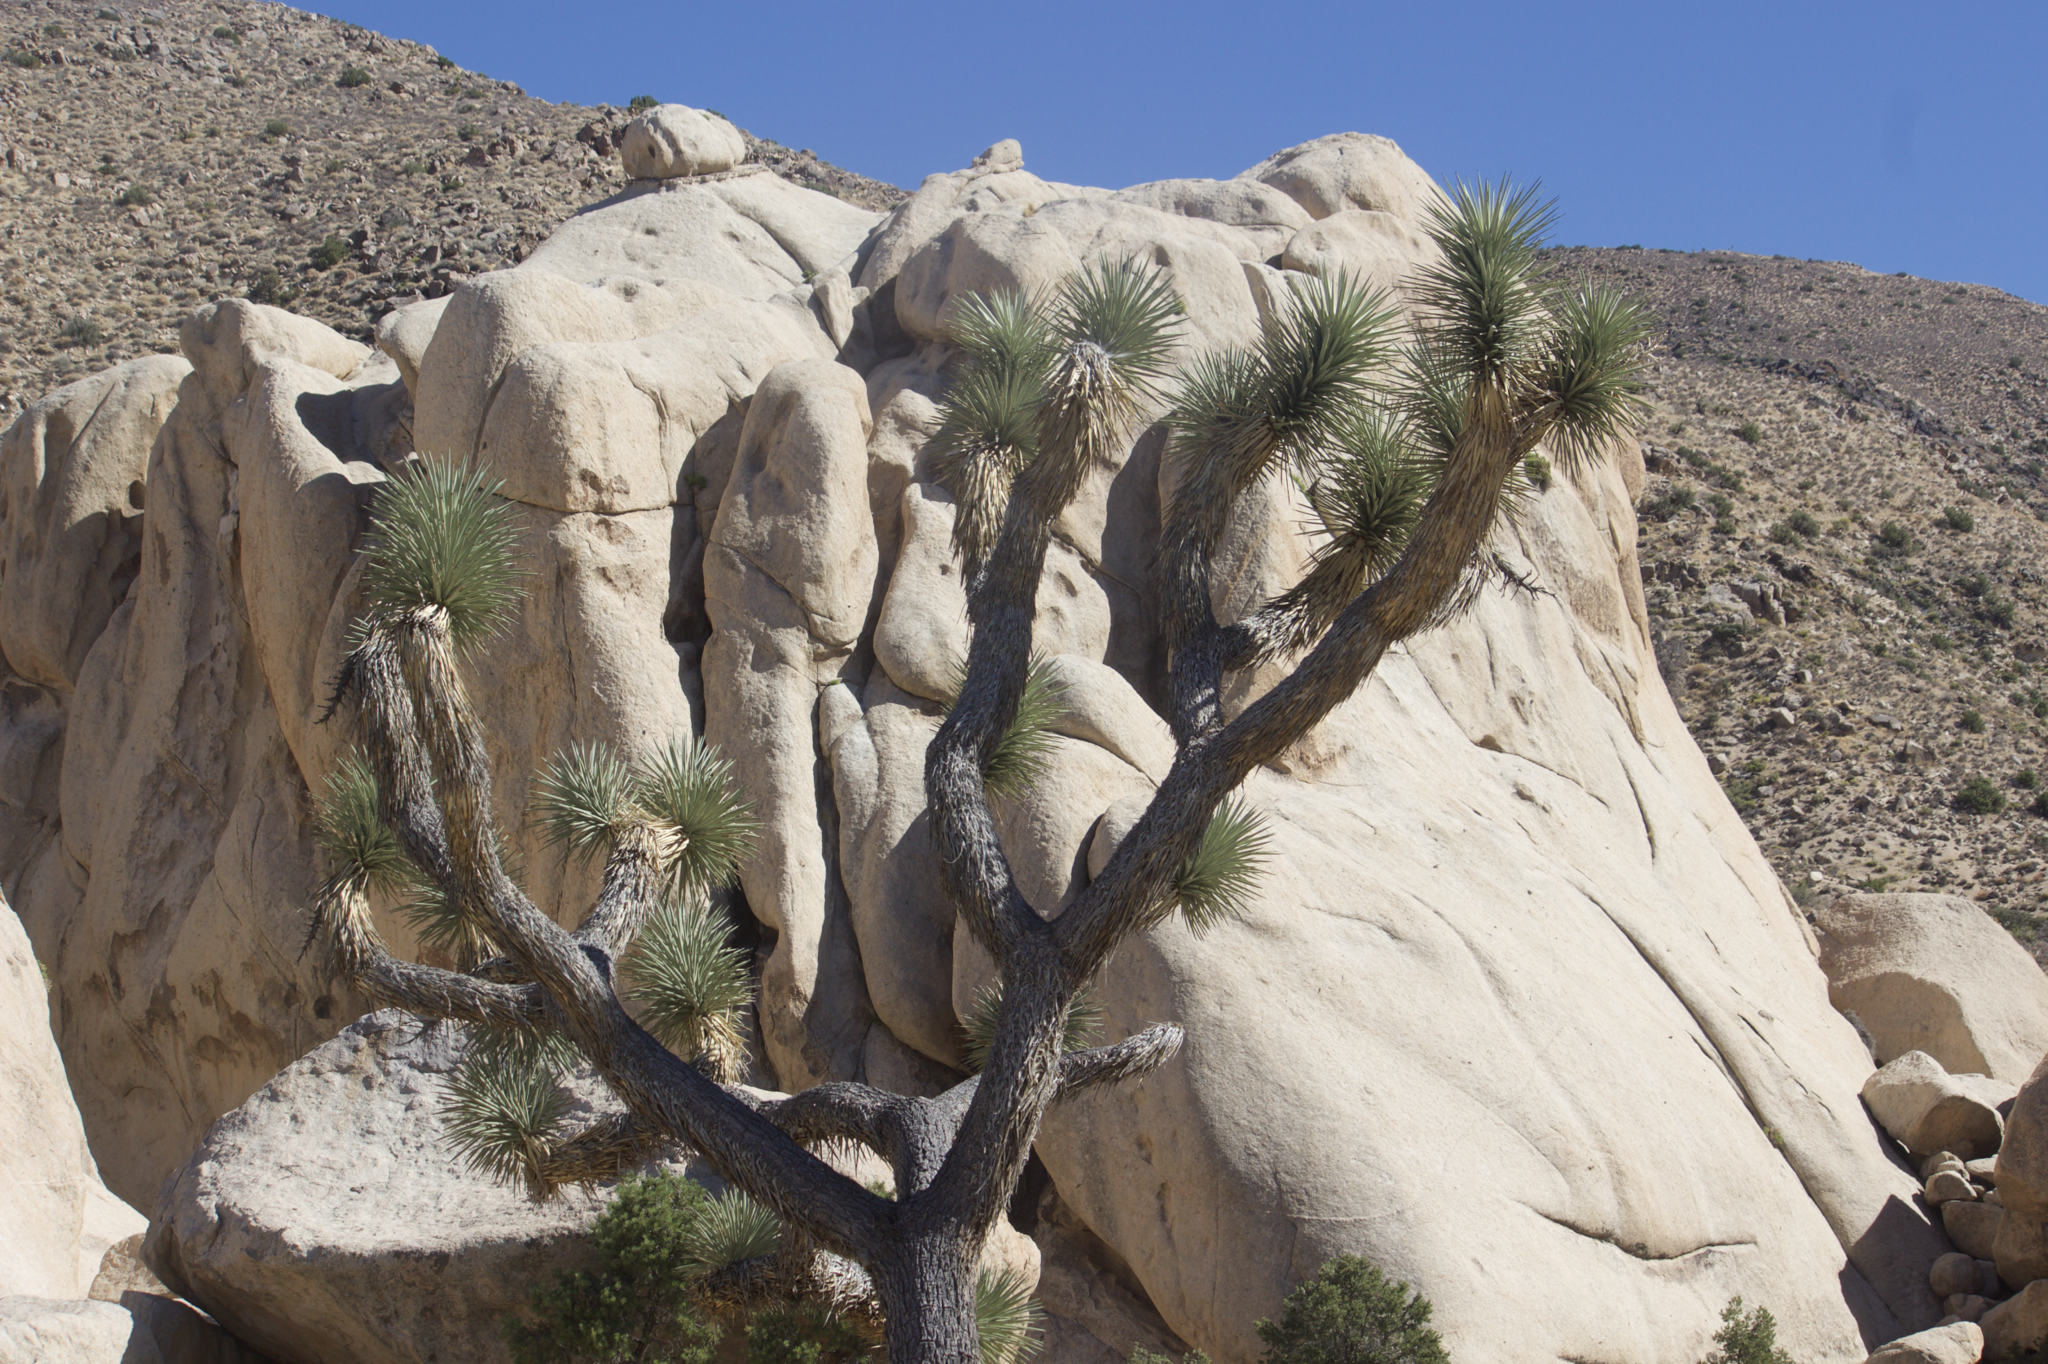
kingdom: Plantae
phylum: Tracheophyta
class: Liliopsida
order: Asparagales
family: Asparagaceae
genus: Yucca
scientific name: Yucca brevifolia
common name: Joshua tree
